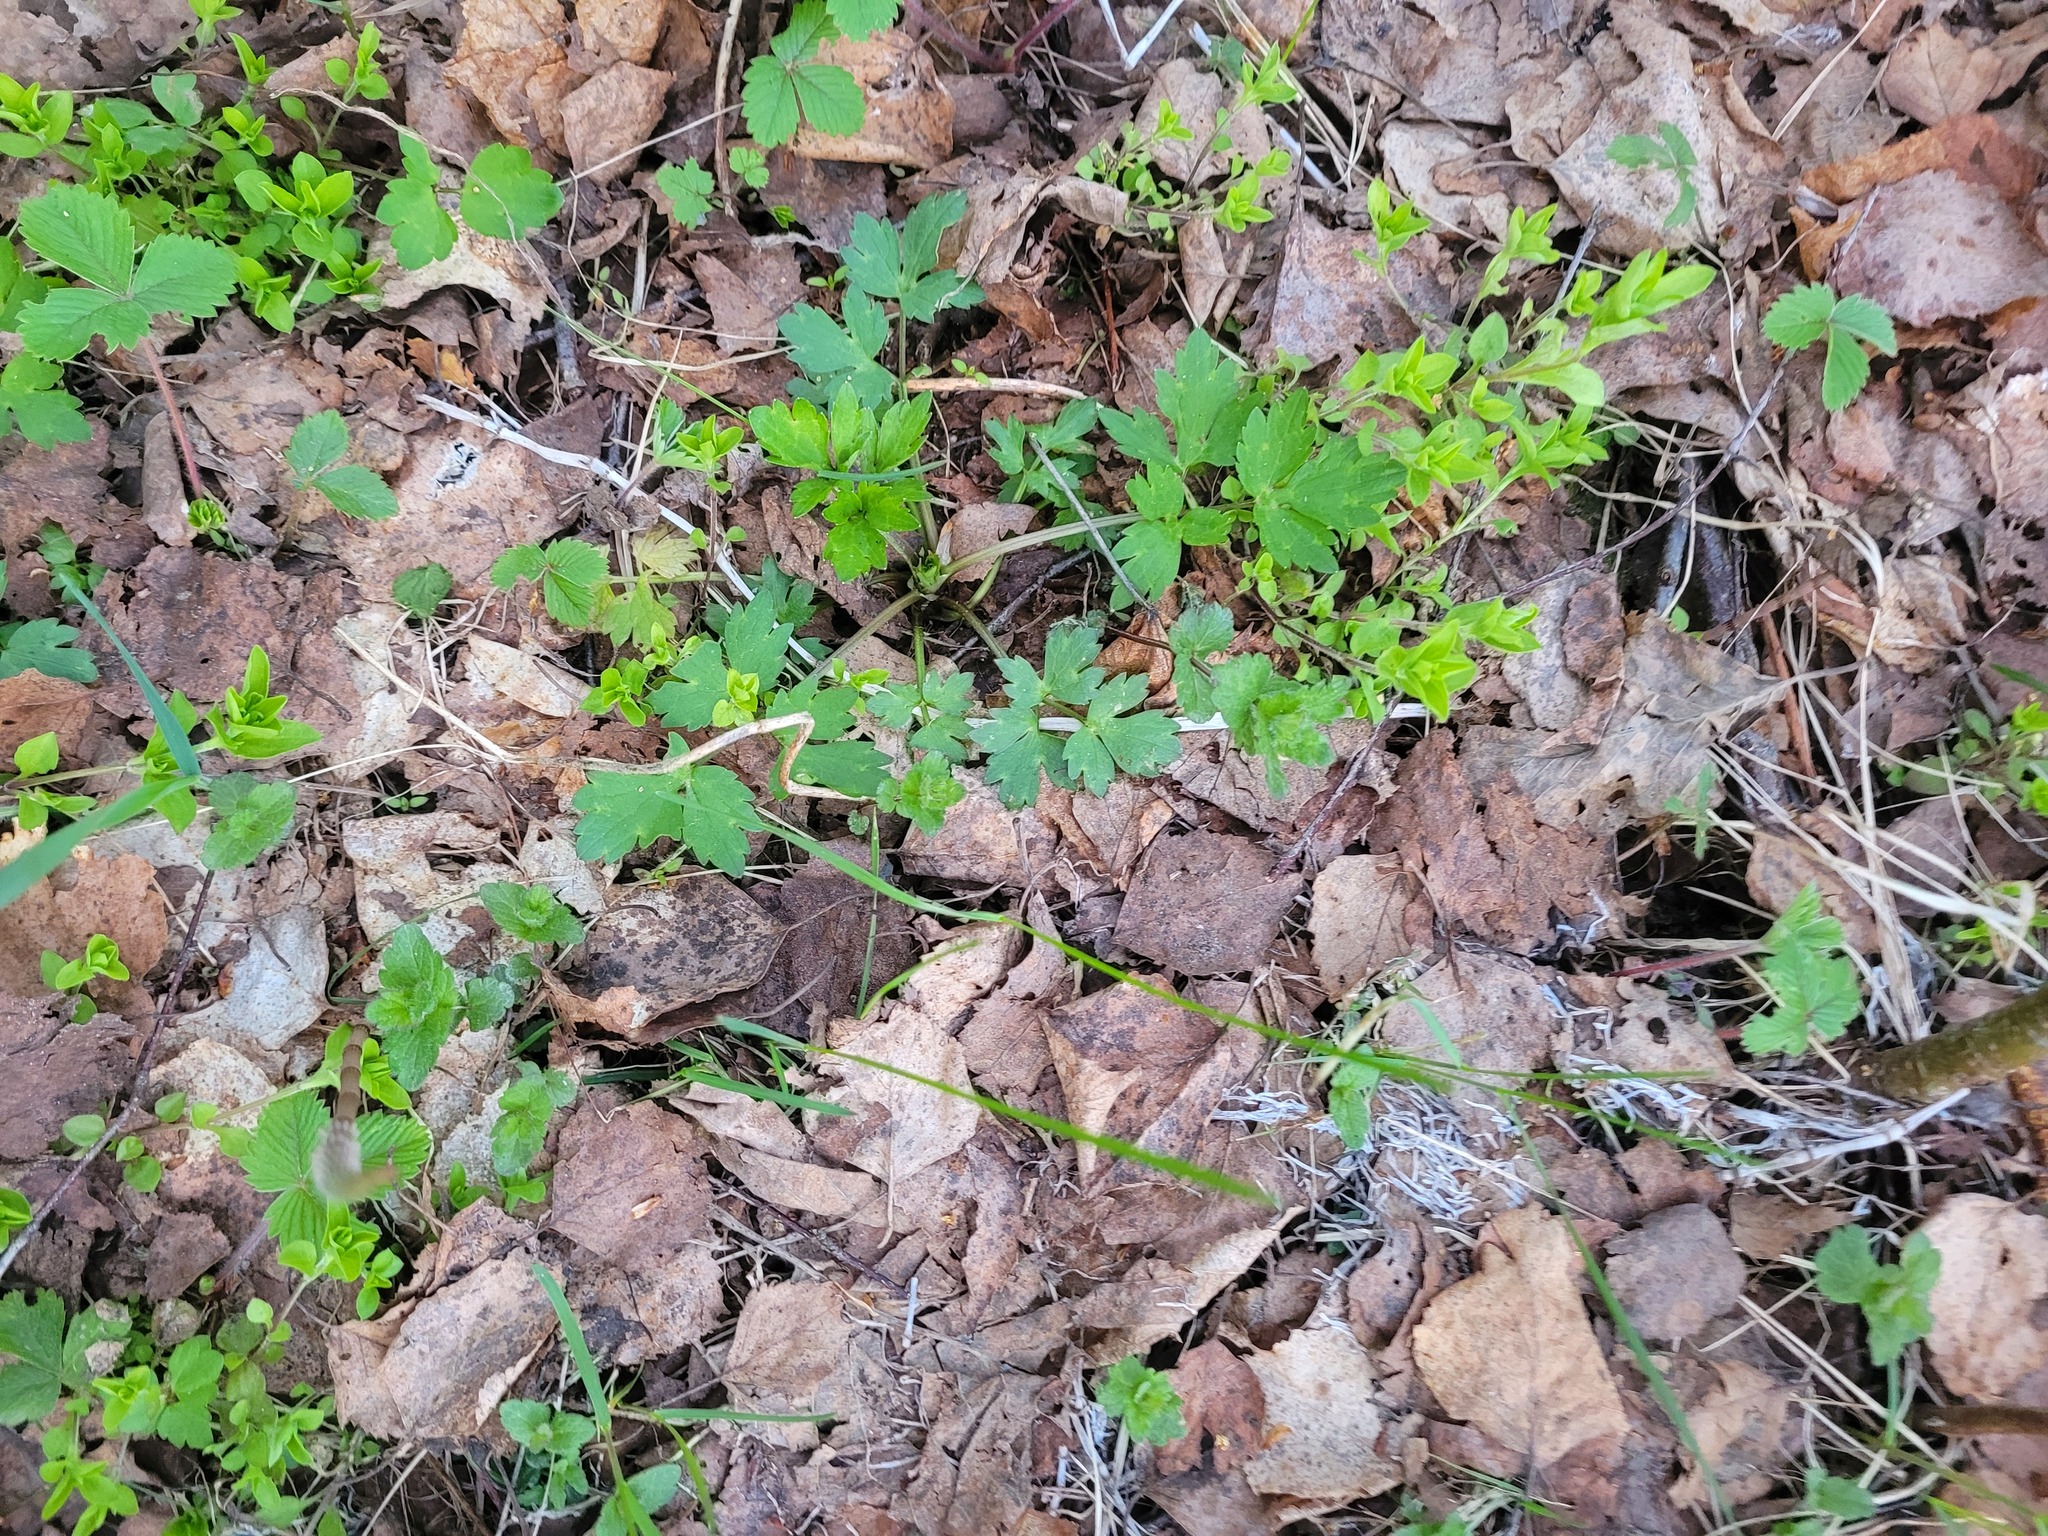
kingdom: Plantae
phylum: Tracheophyta
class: Magnoliopsida
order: Ranunculales
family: Ranunculaceae
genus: Ranunculus
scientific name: Ranunculus repens
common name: Creeping buttercup
